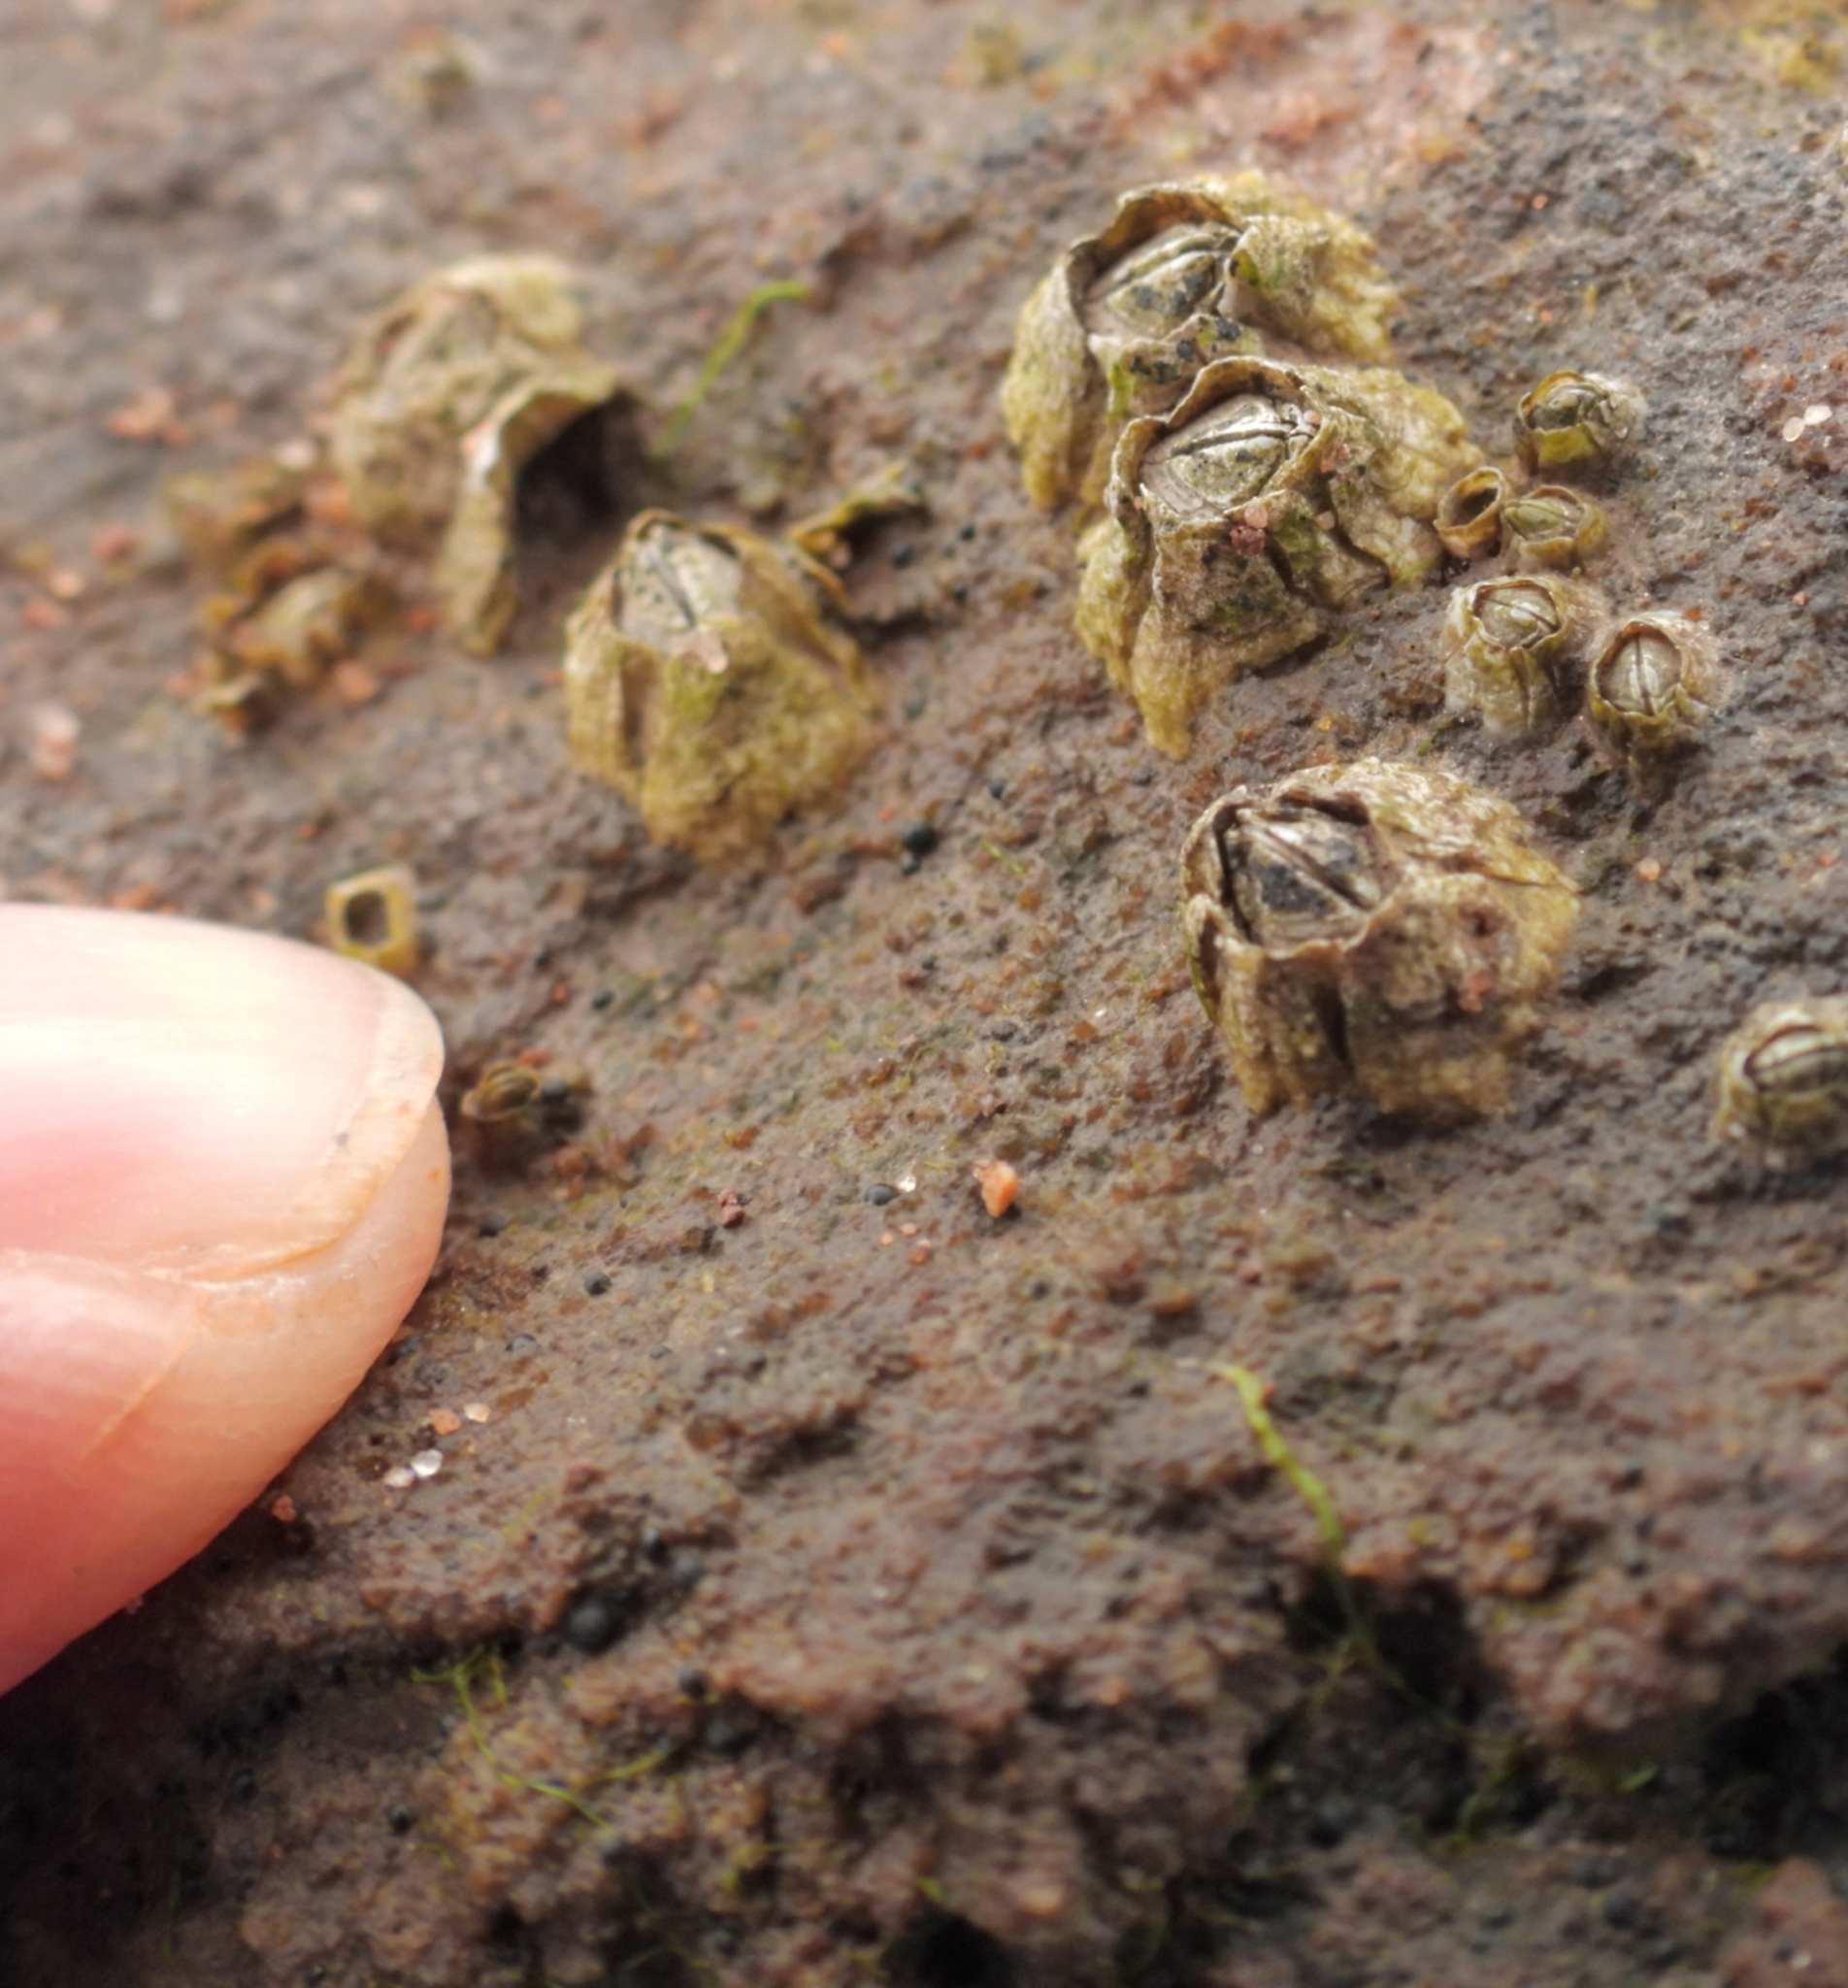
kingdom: Animalia
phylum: Arthropoda
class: Maxillopoda
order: Sessilia
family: Archaeobalanidae
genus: Semibalanus
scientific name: Semibalanus balanoides
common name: Acorn barnacle
